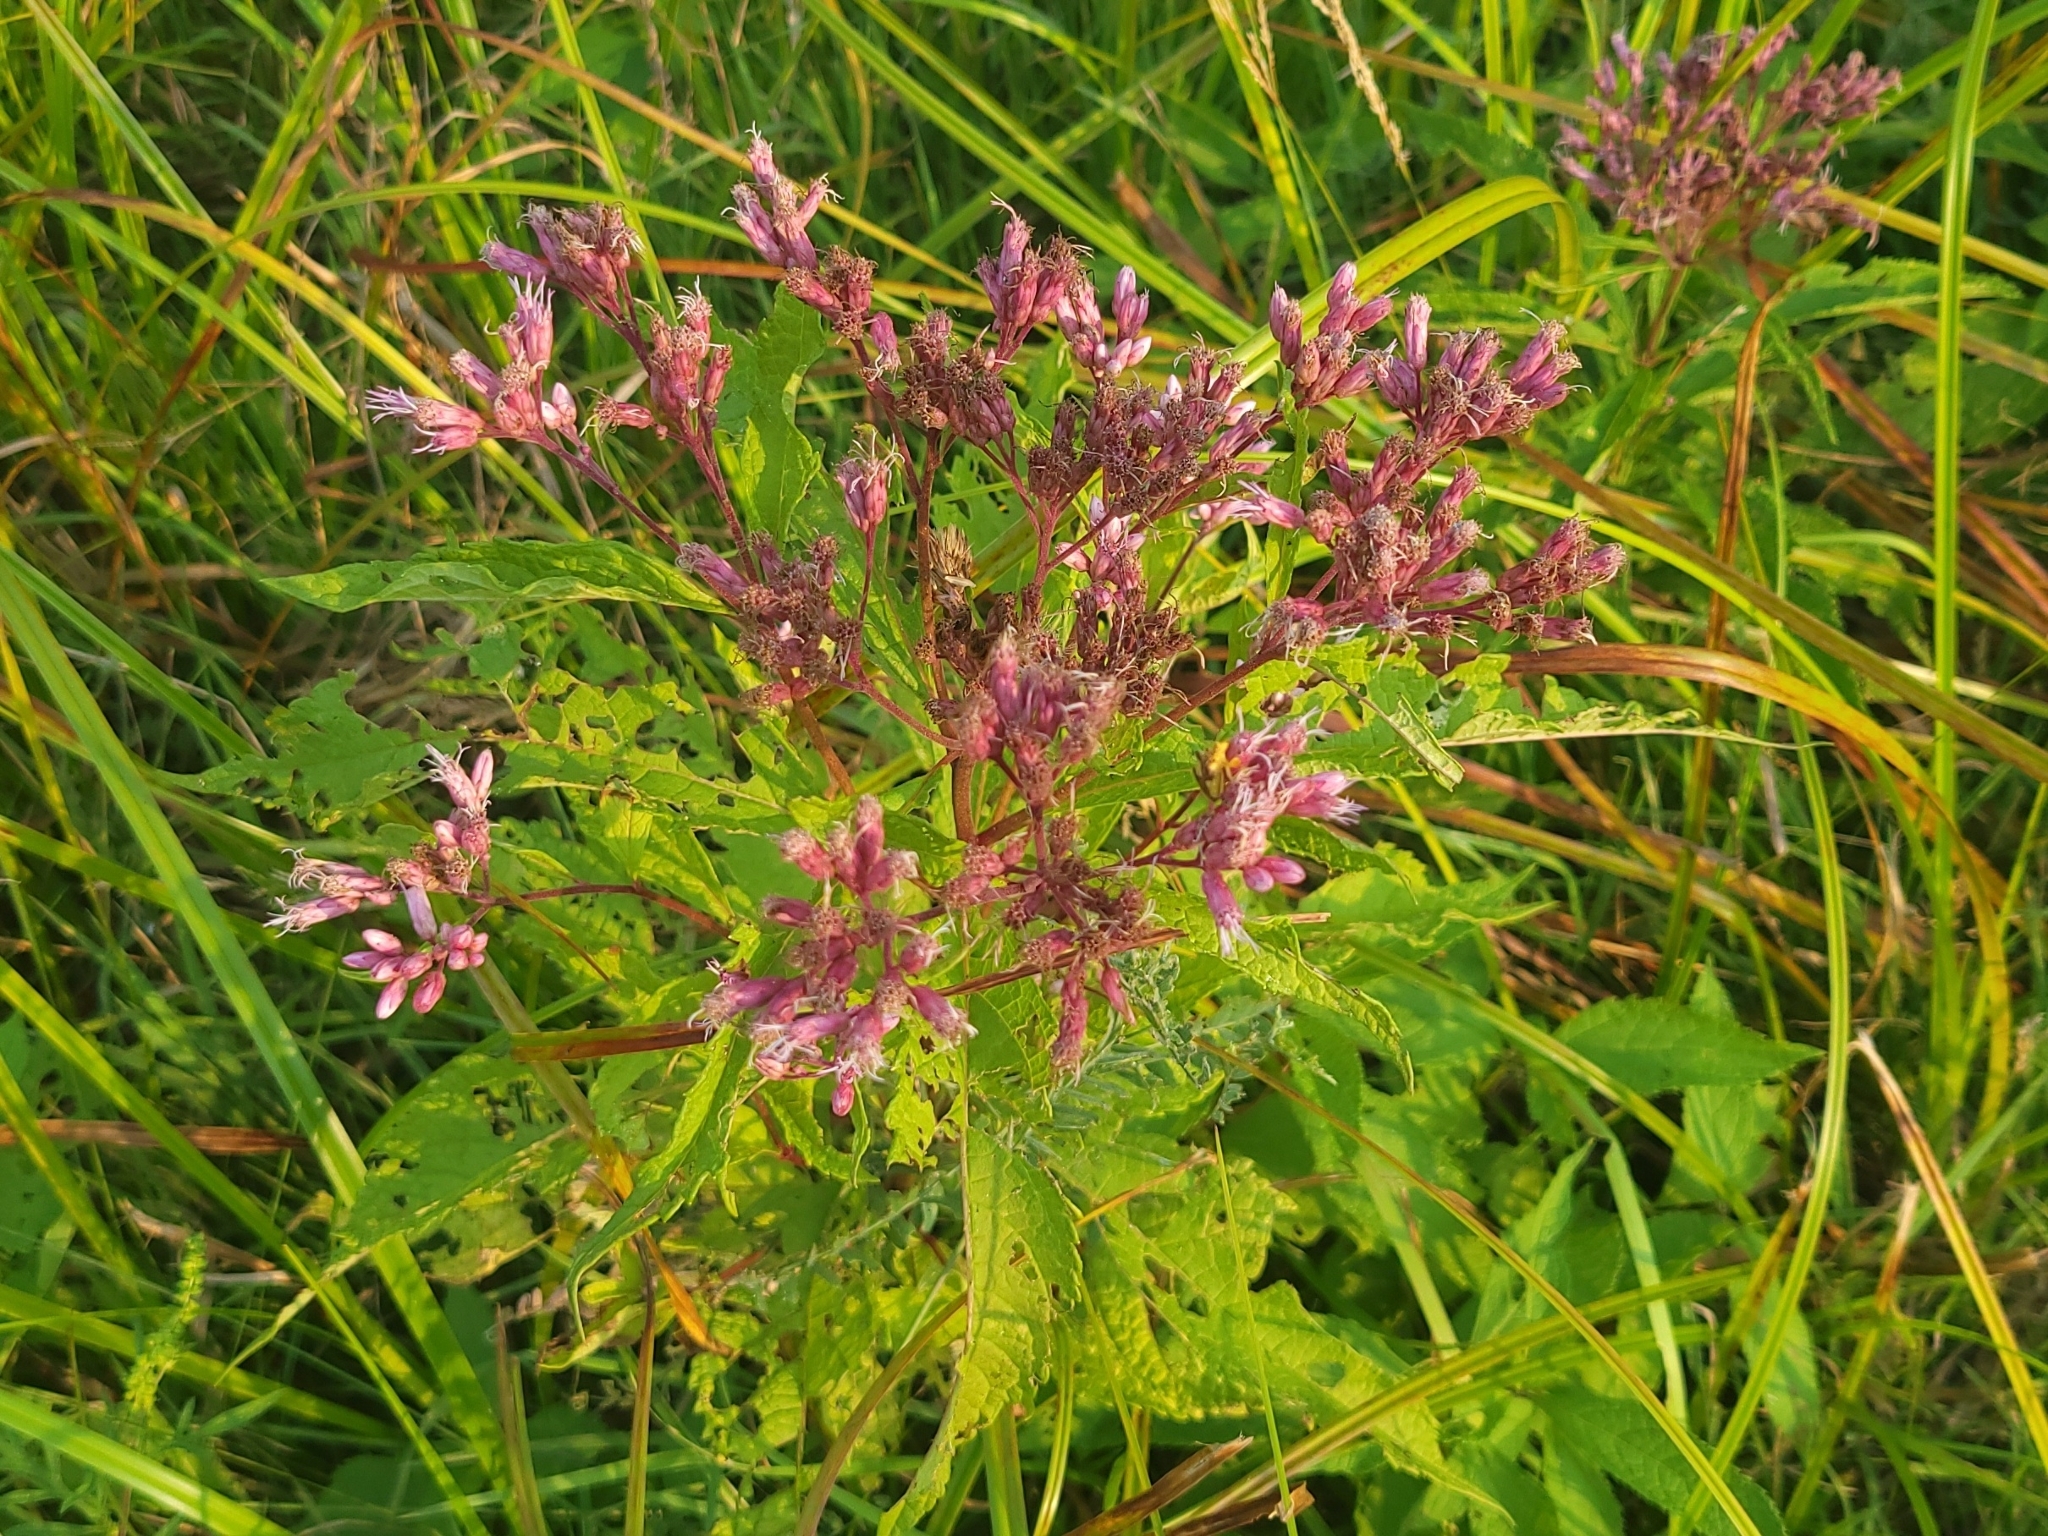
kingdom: Plantae
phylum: Tracheophyta
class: Magnoliopsida
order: Asterales
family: Asteraceae
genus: Eutrochium
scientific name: Eutrochium maculatum
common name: Spotted joe pye weed
